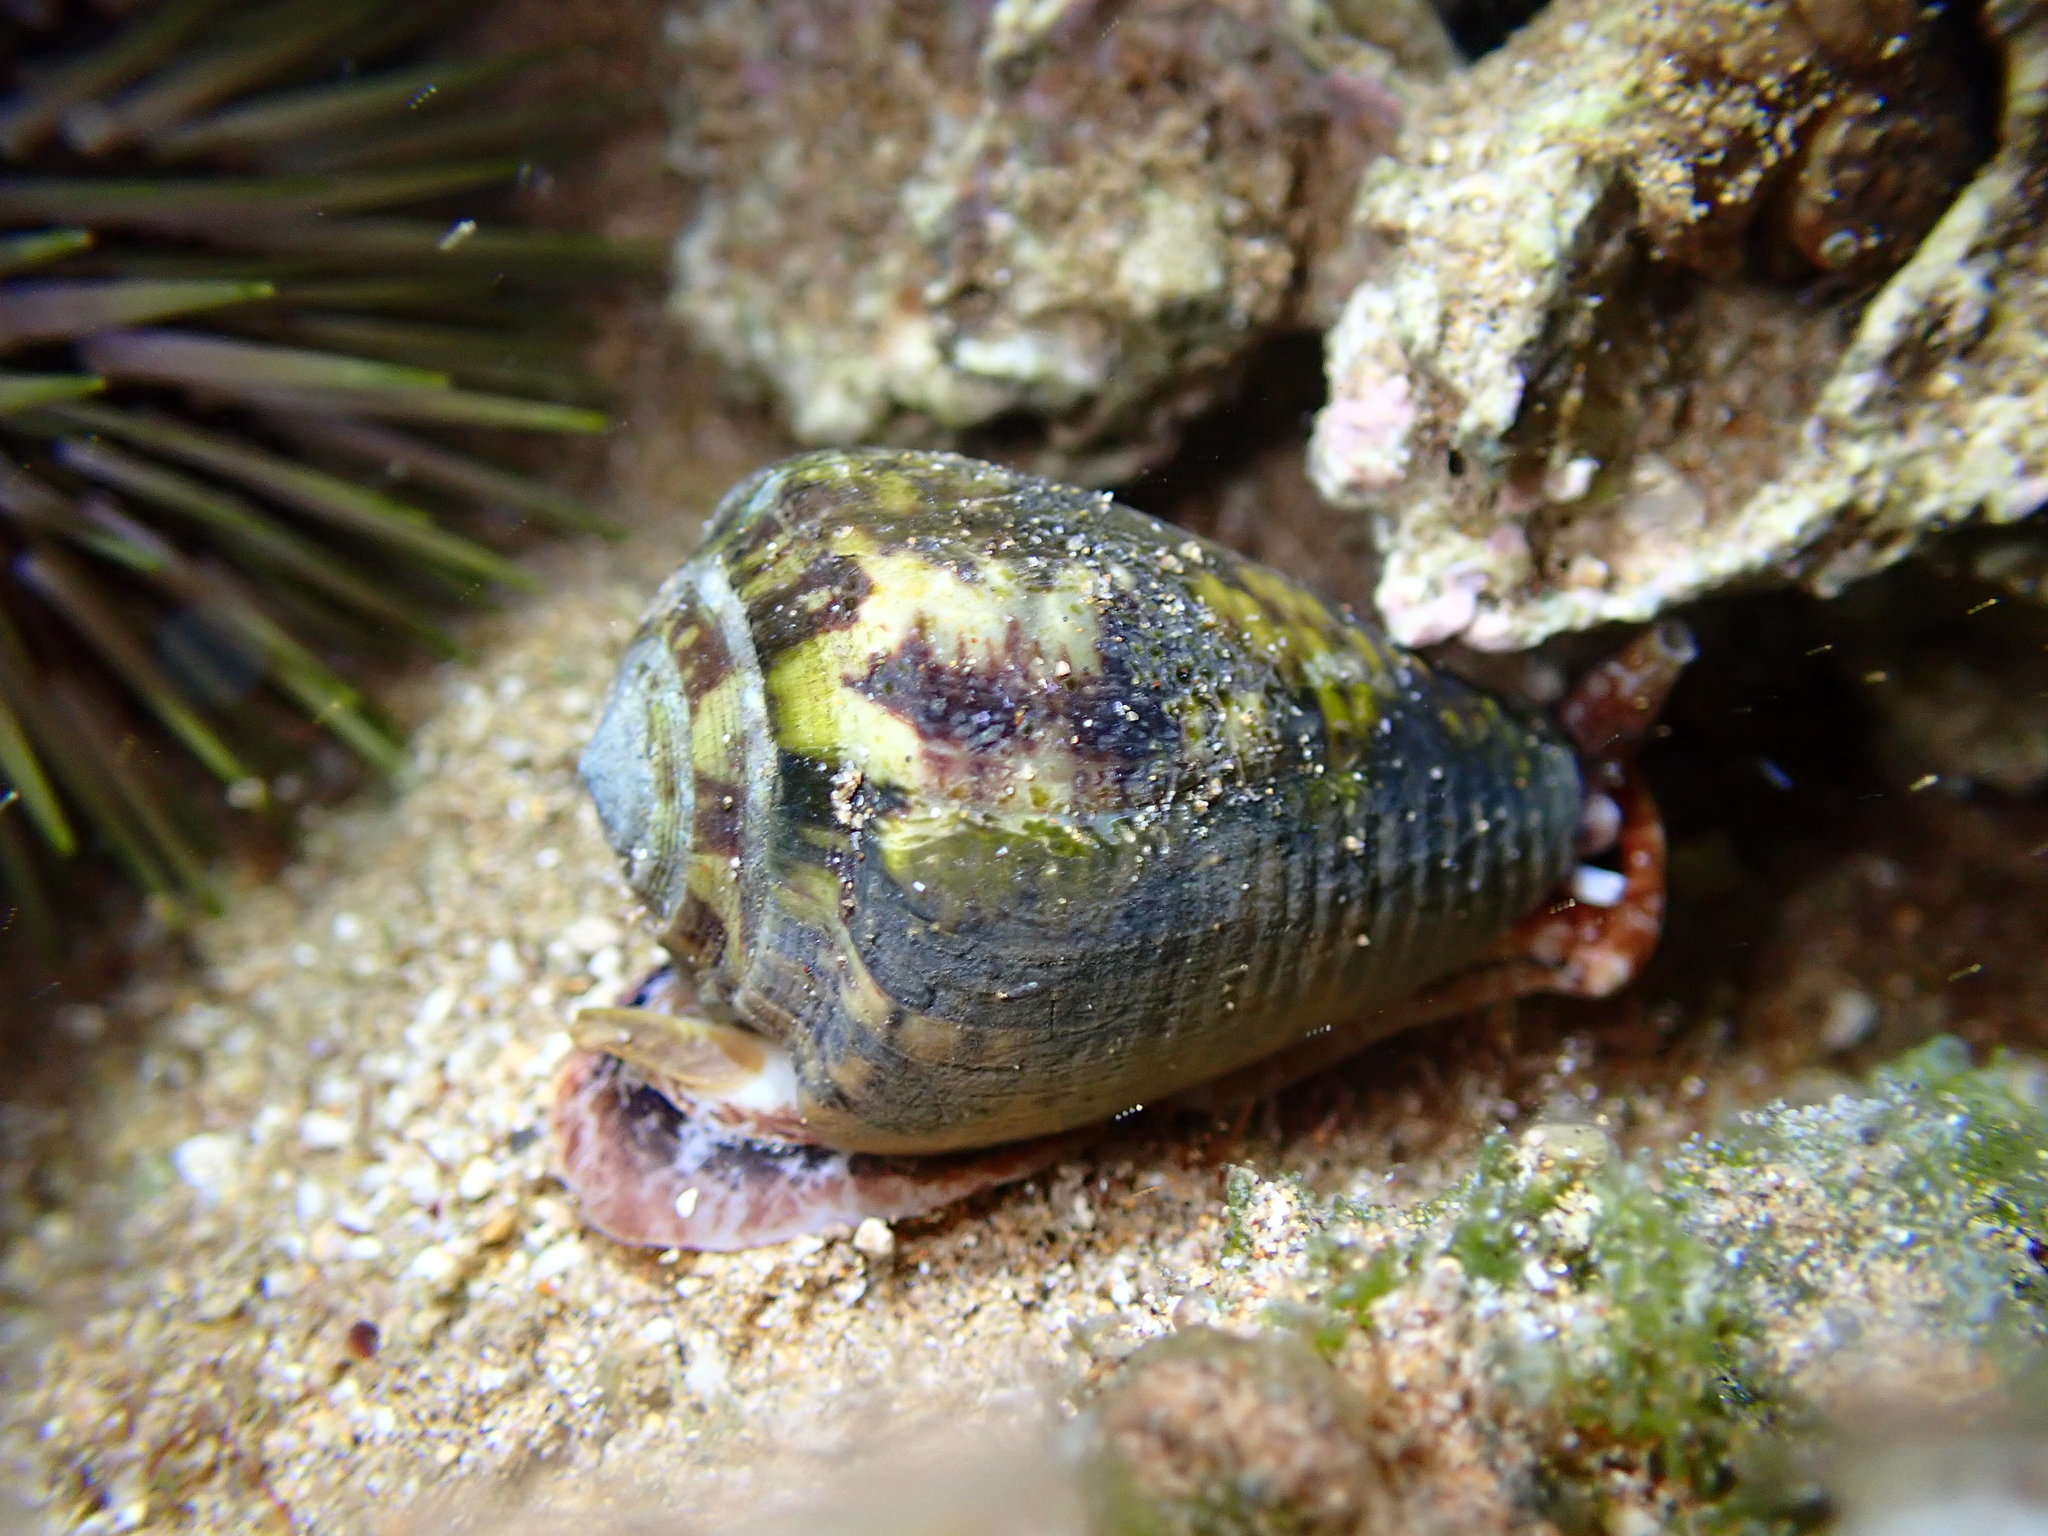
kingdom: Animalia
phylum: Mollusca
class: Gastropoda
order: Neogastropoda
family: Conidae
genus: Conus
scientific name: Conus catus
